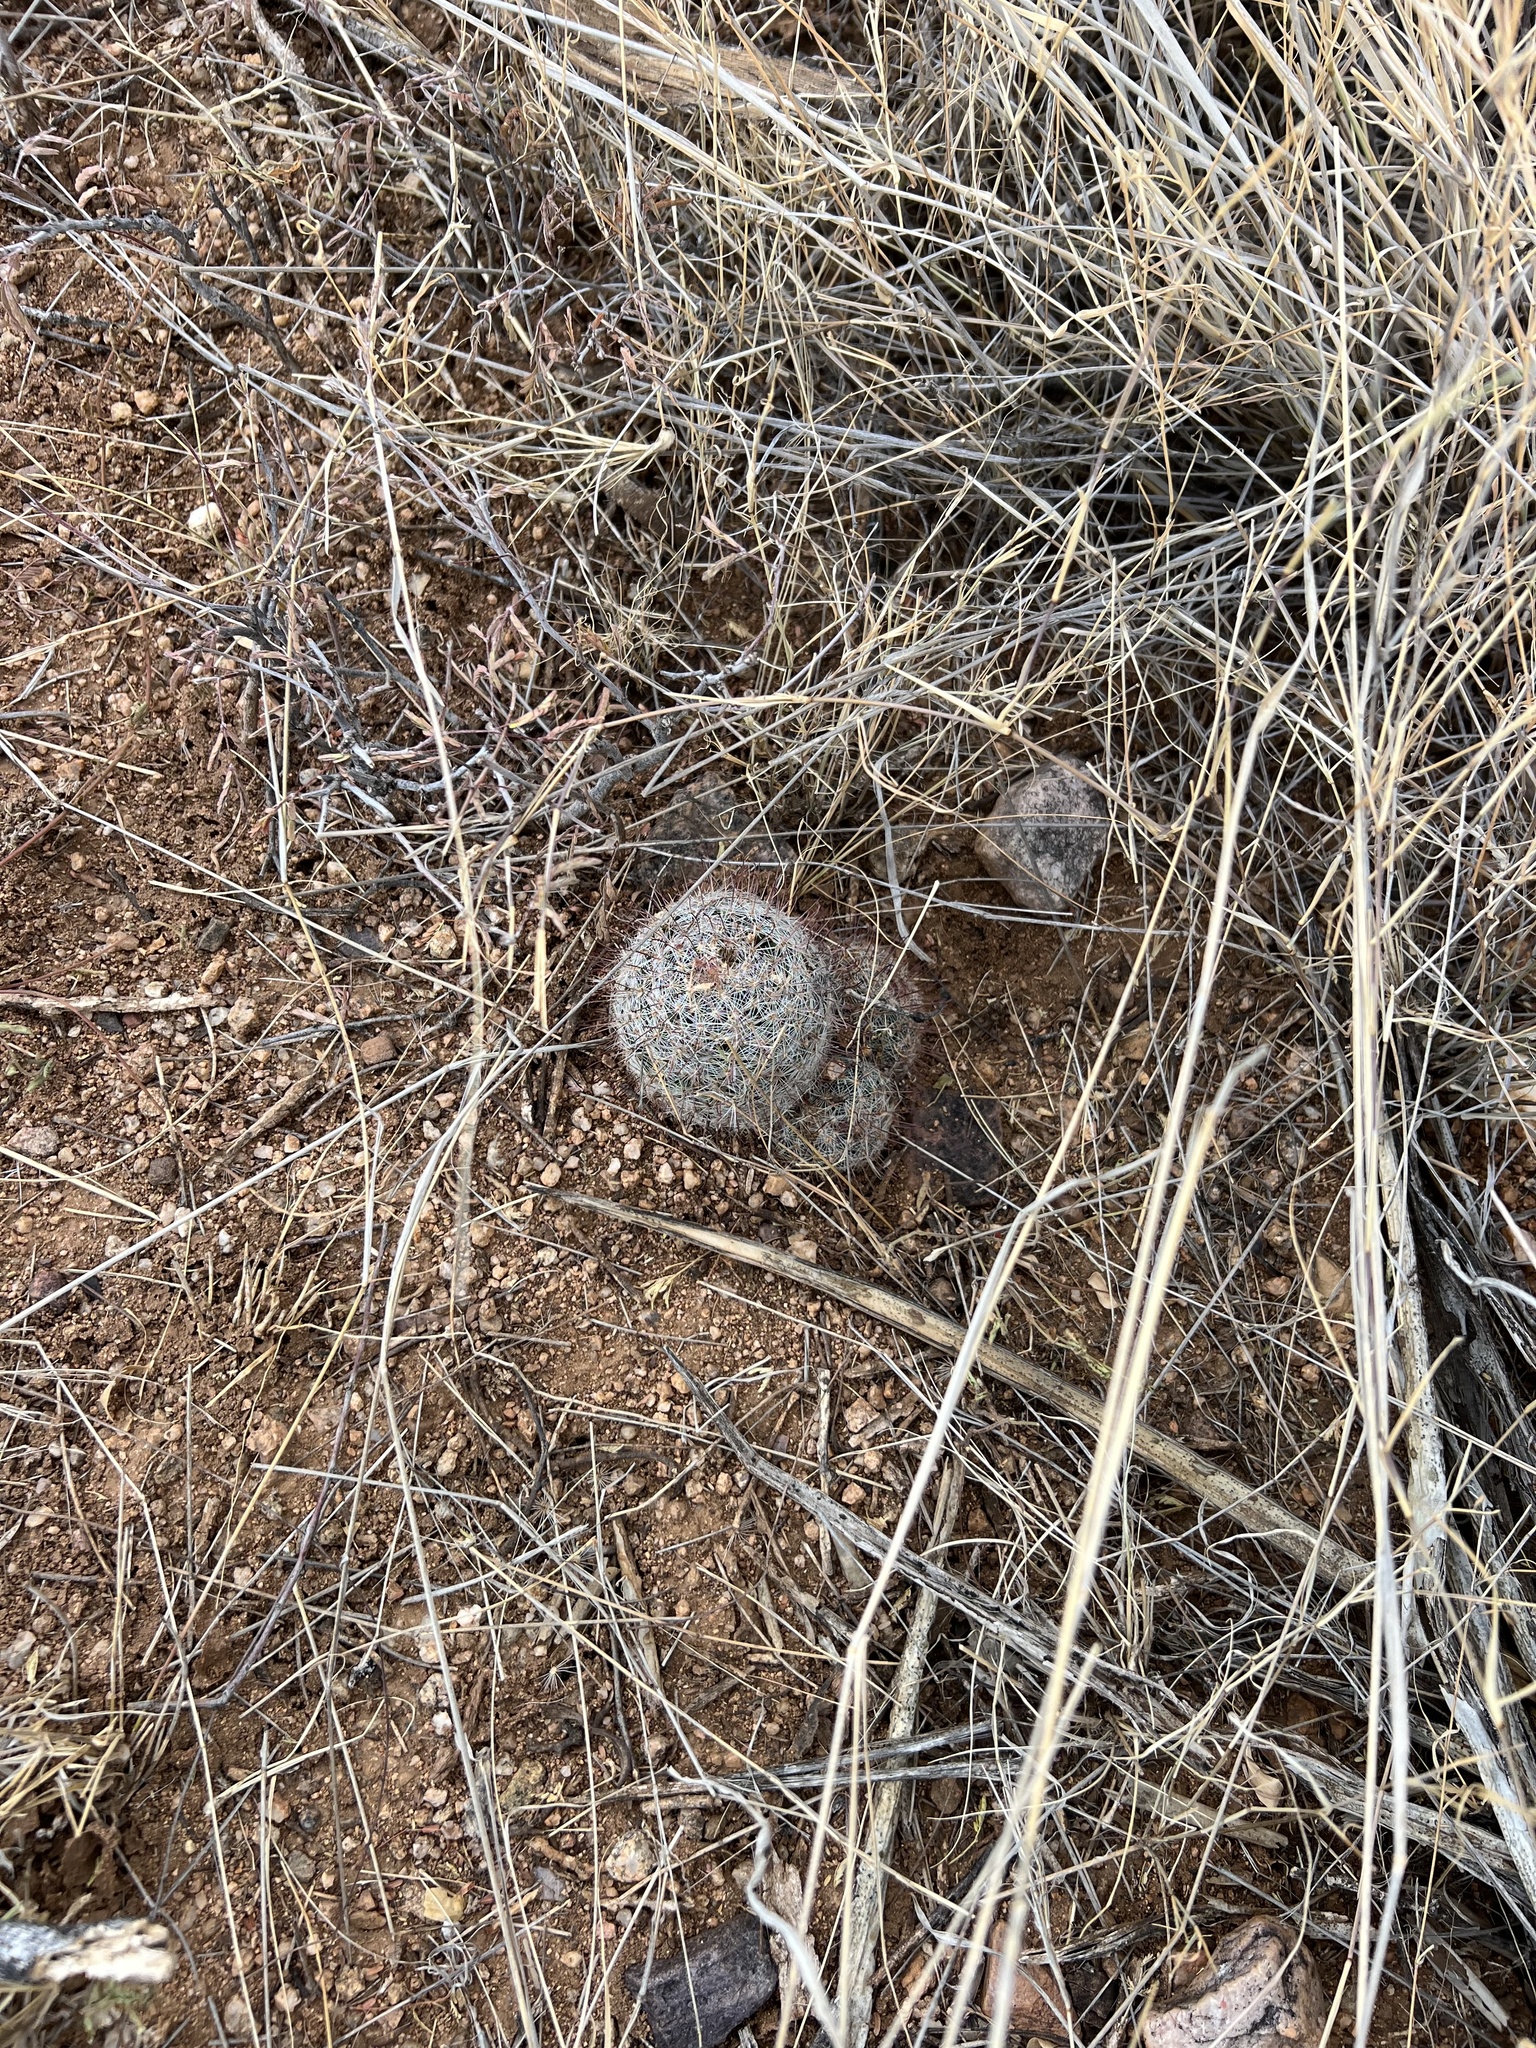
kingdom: Plantae
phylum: Tracheophyta
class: Magnoliopsida
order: Caryophyllales
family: Cactaceae
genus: Cochemiea
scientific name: Cochemiea grahamii
